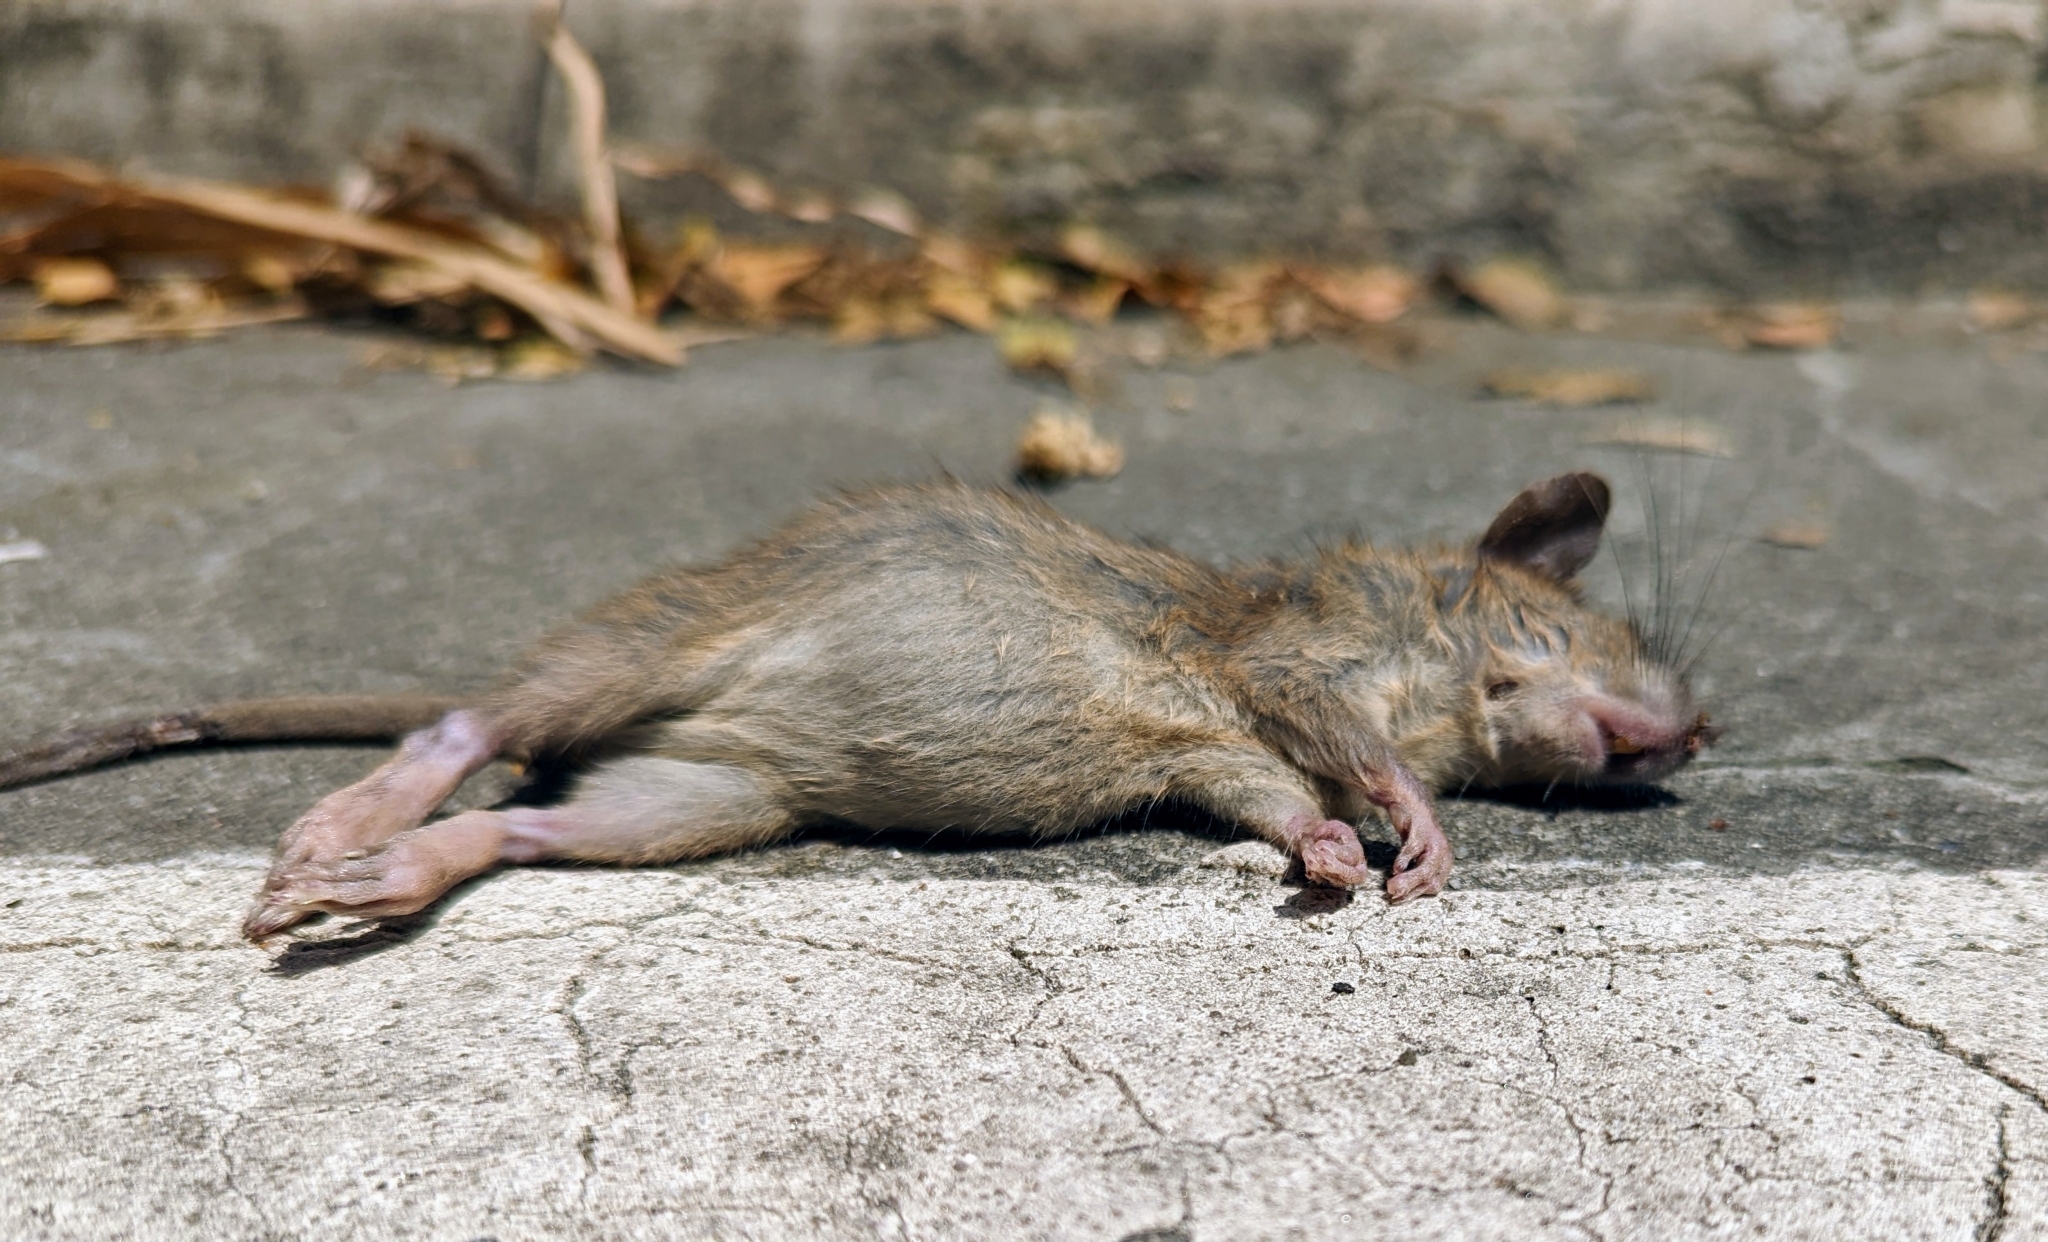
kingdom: Animalia
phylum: Chordata
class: Mammalia
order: Rodentia
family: Muridae
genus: Rattus
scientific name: Rattus norvegicus
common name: Brown rat
